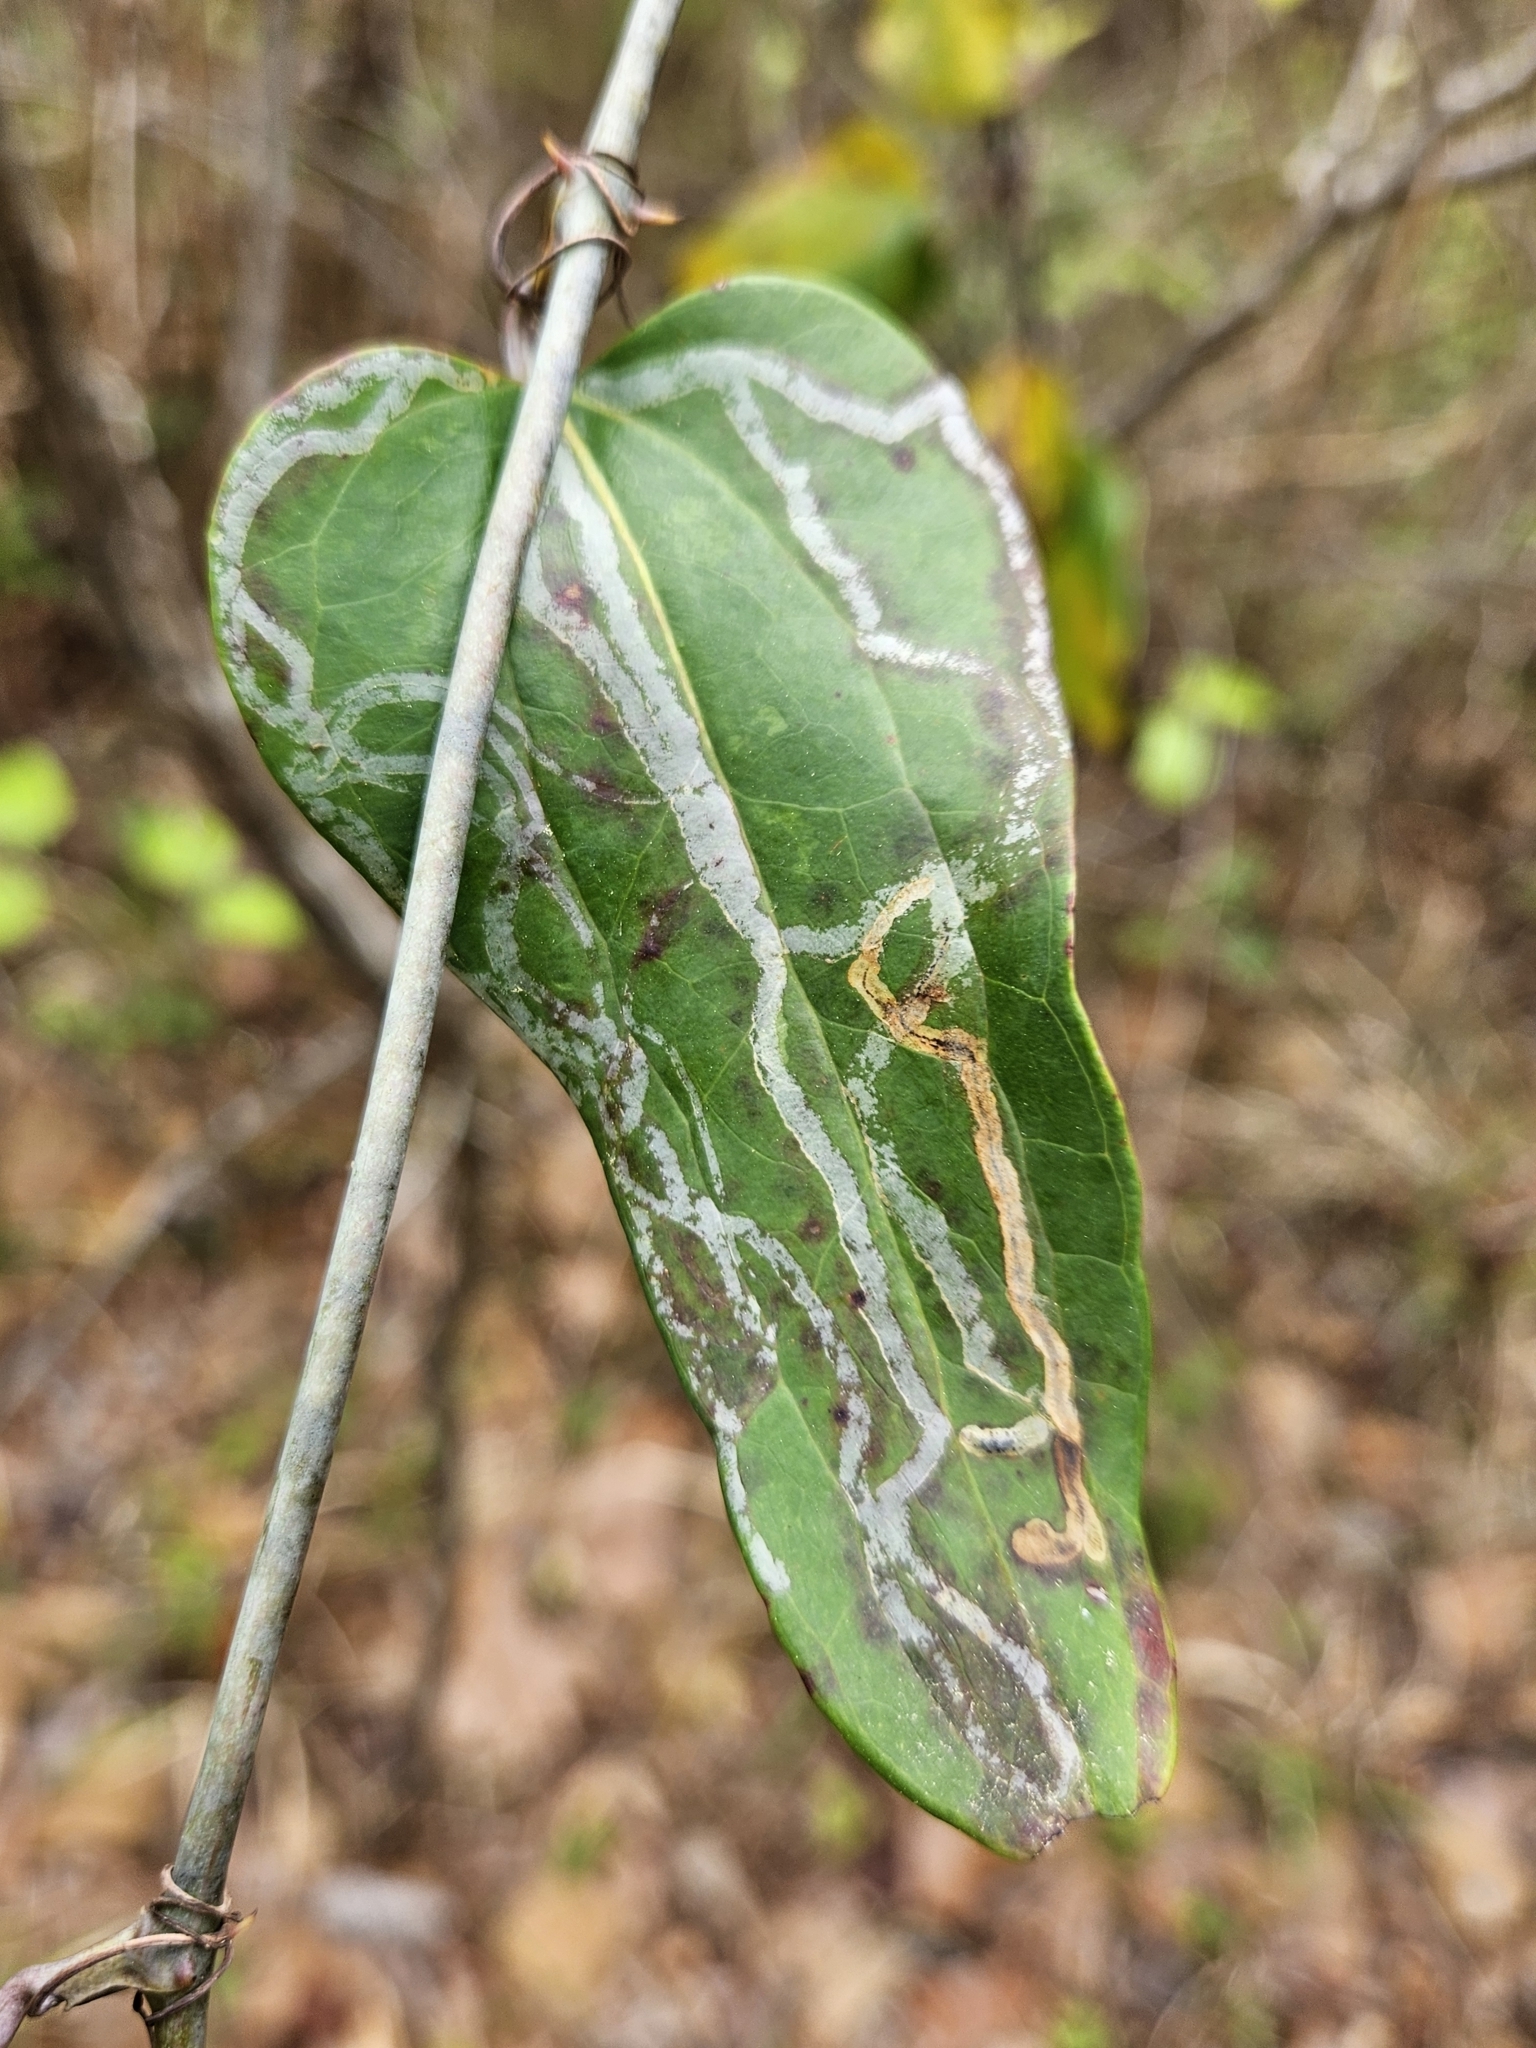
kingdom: Animalia
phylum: Arthropoda
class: Insecta
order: Lepidoptera
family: Gracillariidae
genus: Marmara
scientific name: Marmara smilacisella
